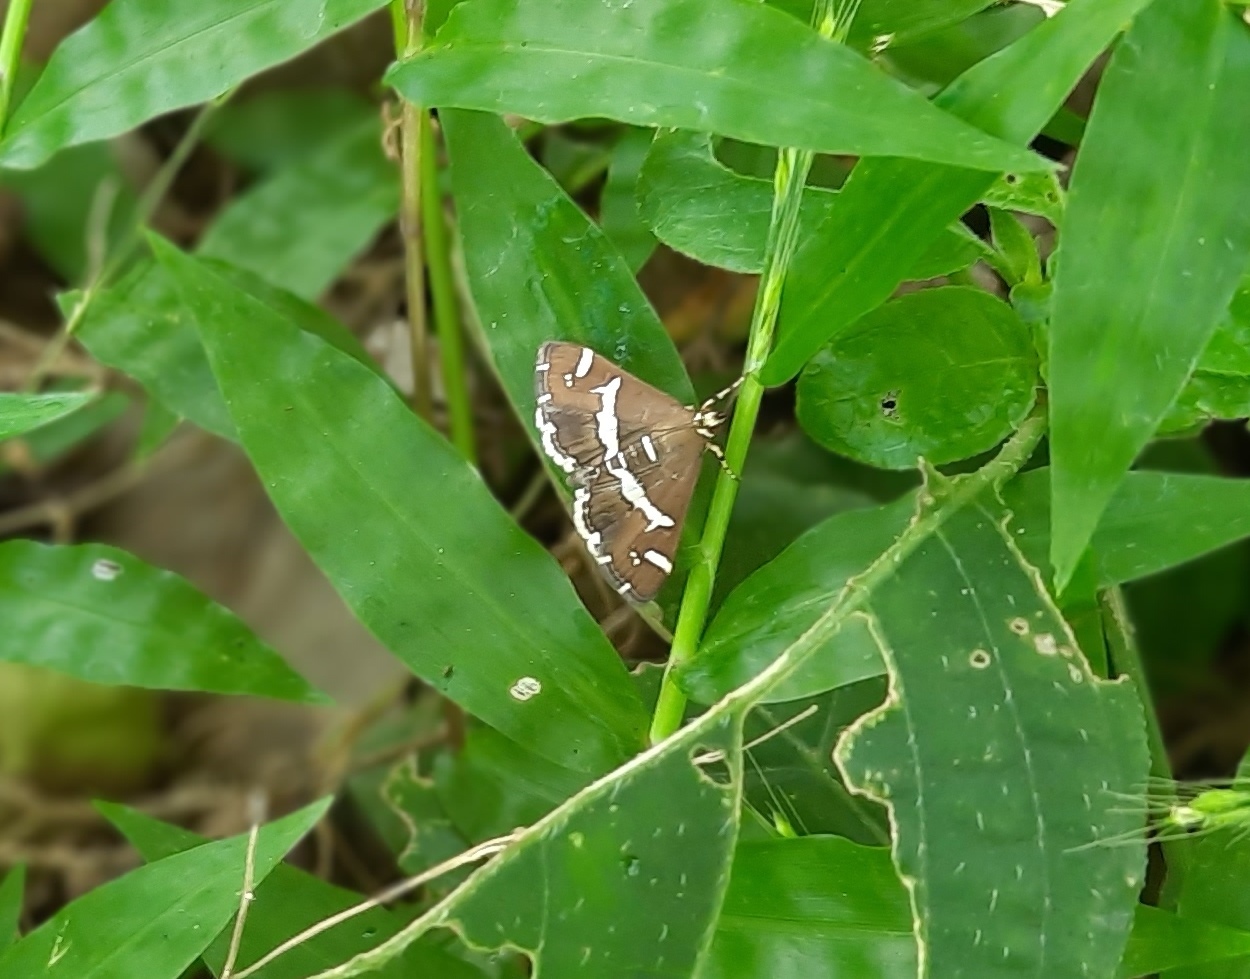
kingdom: Animalia
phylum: Arthropoda
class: Insecta
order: Lepidoptera
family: Crambidae
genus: Spoladea
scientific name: Spoladea recurvalis
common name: Beet webworm moth
